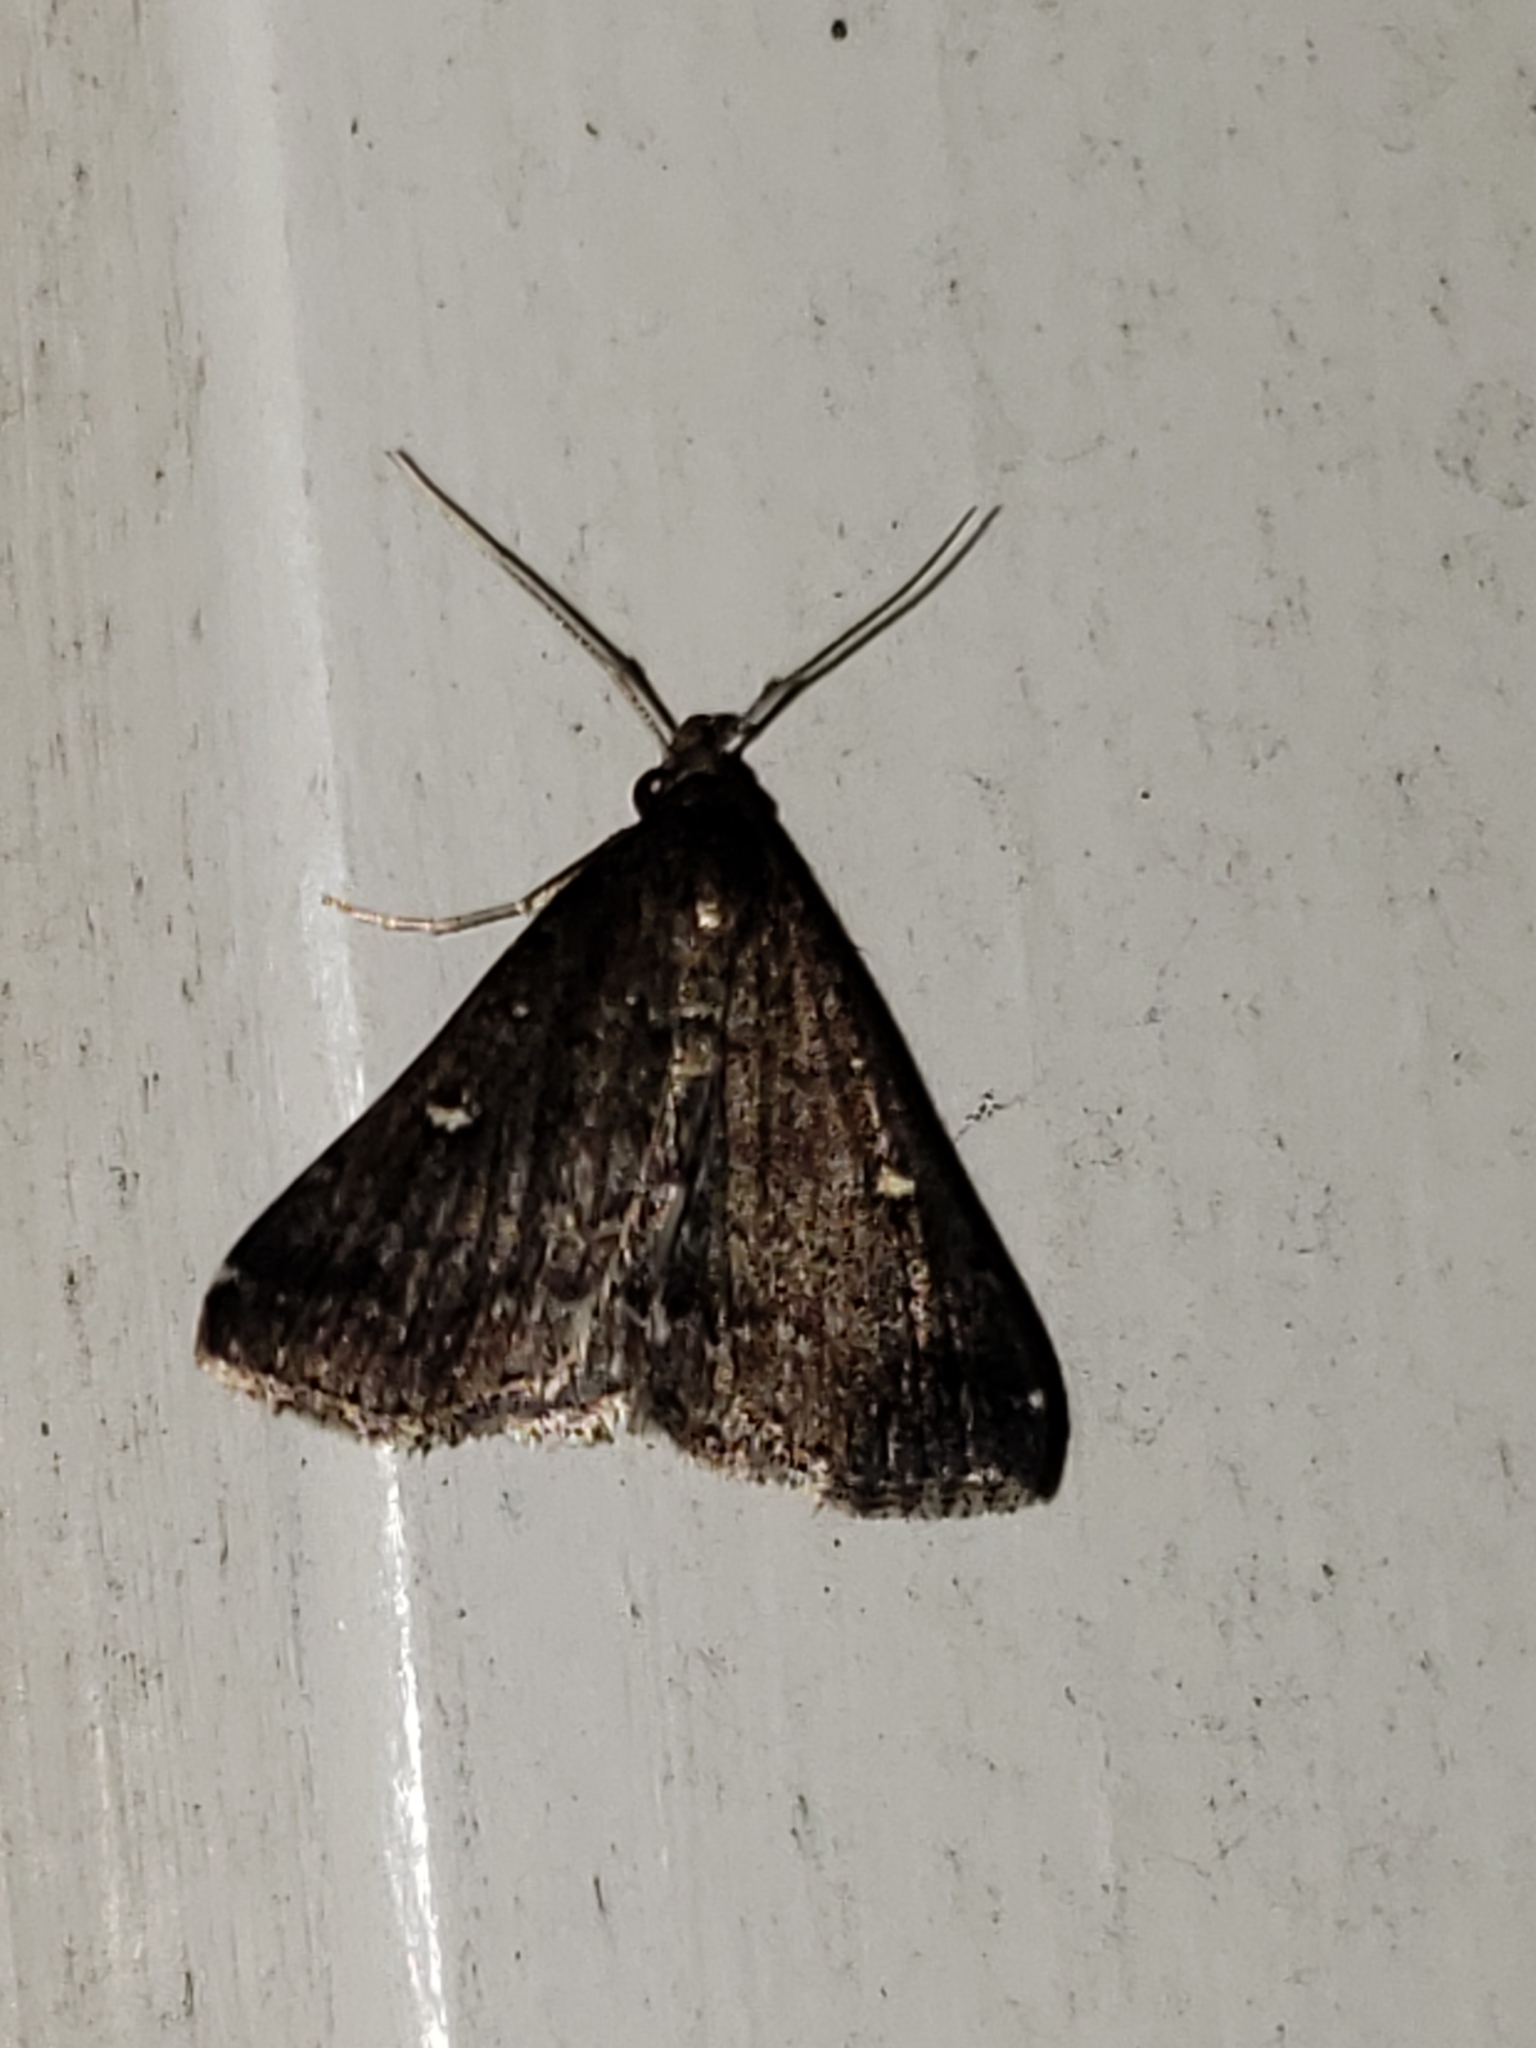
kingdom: Animalia
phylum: Arthropoda
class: Insecta
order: Lepidoptera
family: Erebidae
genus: Tetanolita
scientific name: Tetanolita mynesalis
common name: Smoky tetanolita moth
